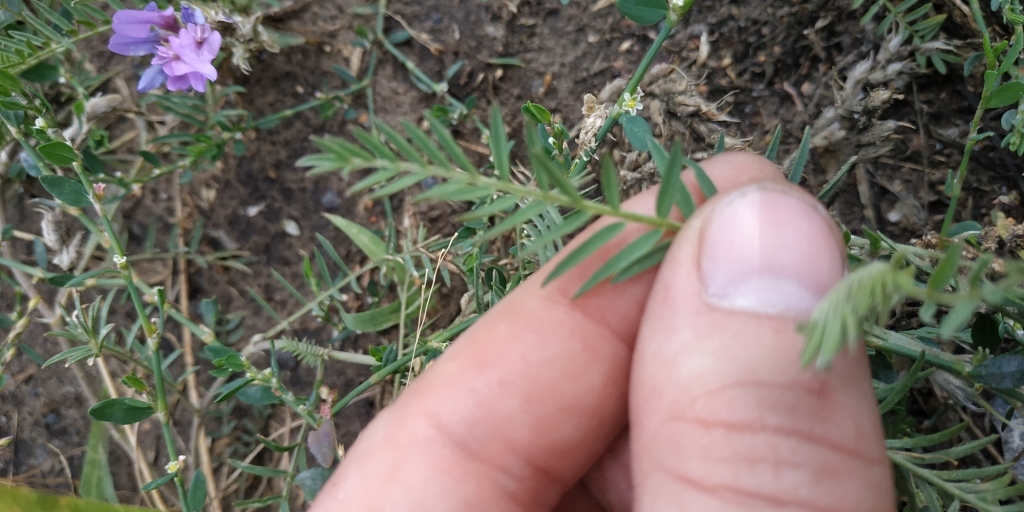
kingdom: Plantae
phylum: Tracheophyta
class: Magnoliopsida
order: Fabales
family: Fabaceae
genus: Astragalus
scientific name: Astragalus onobrychis
